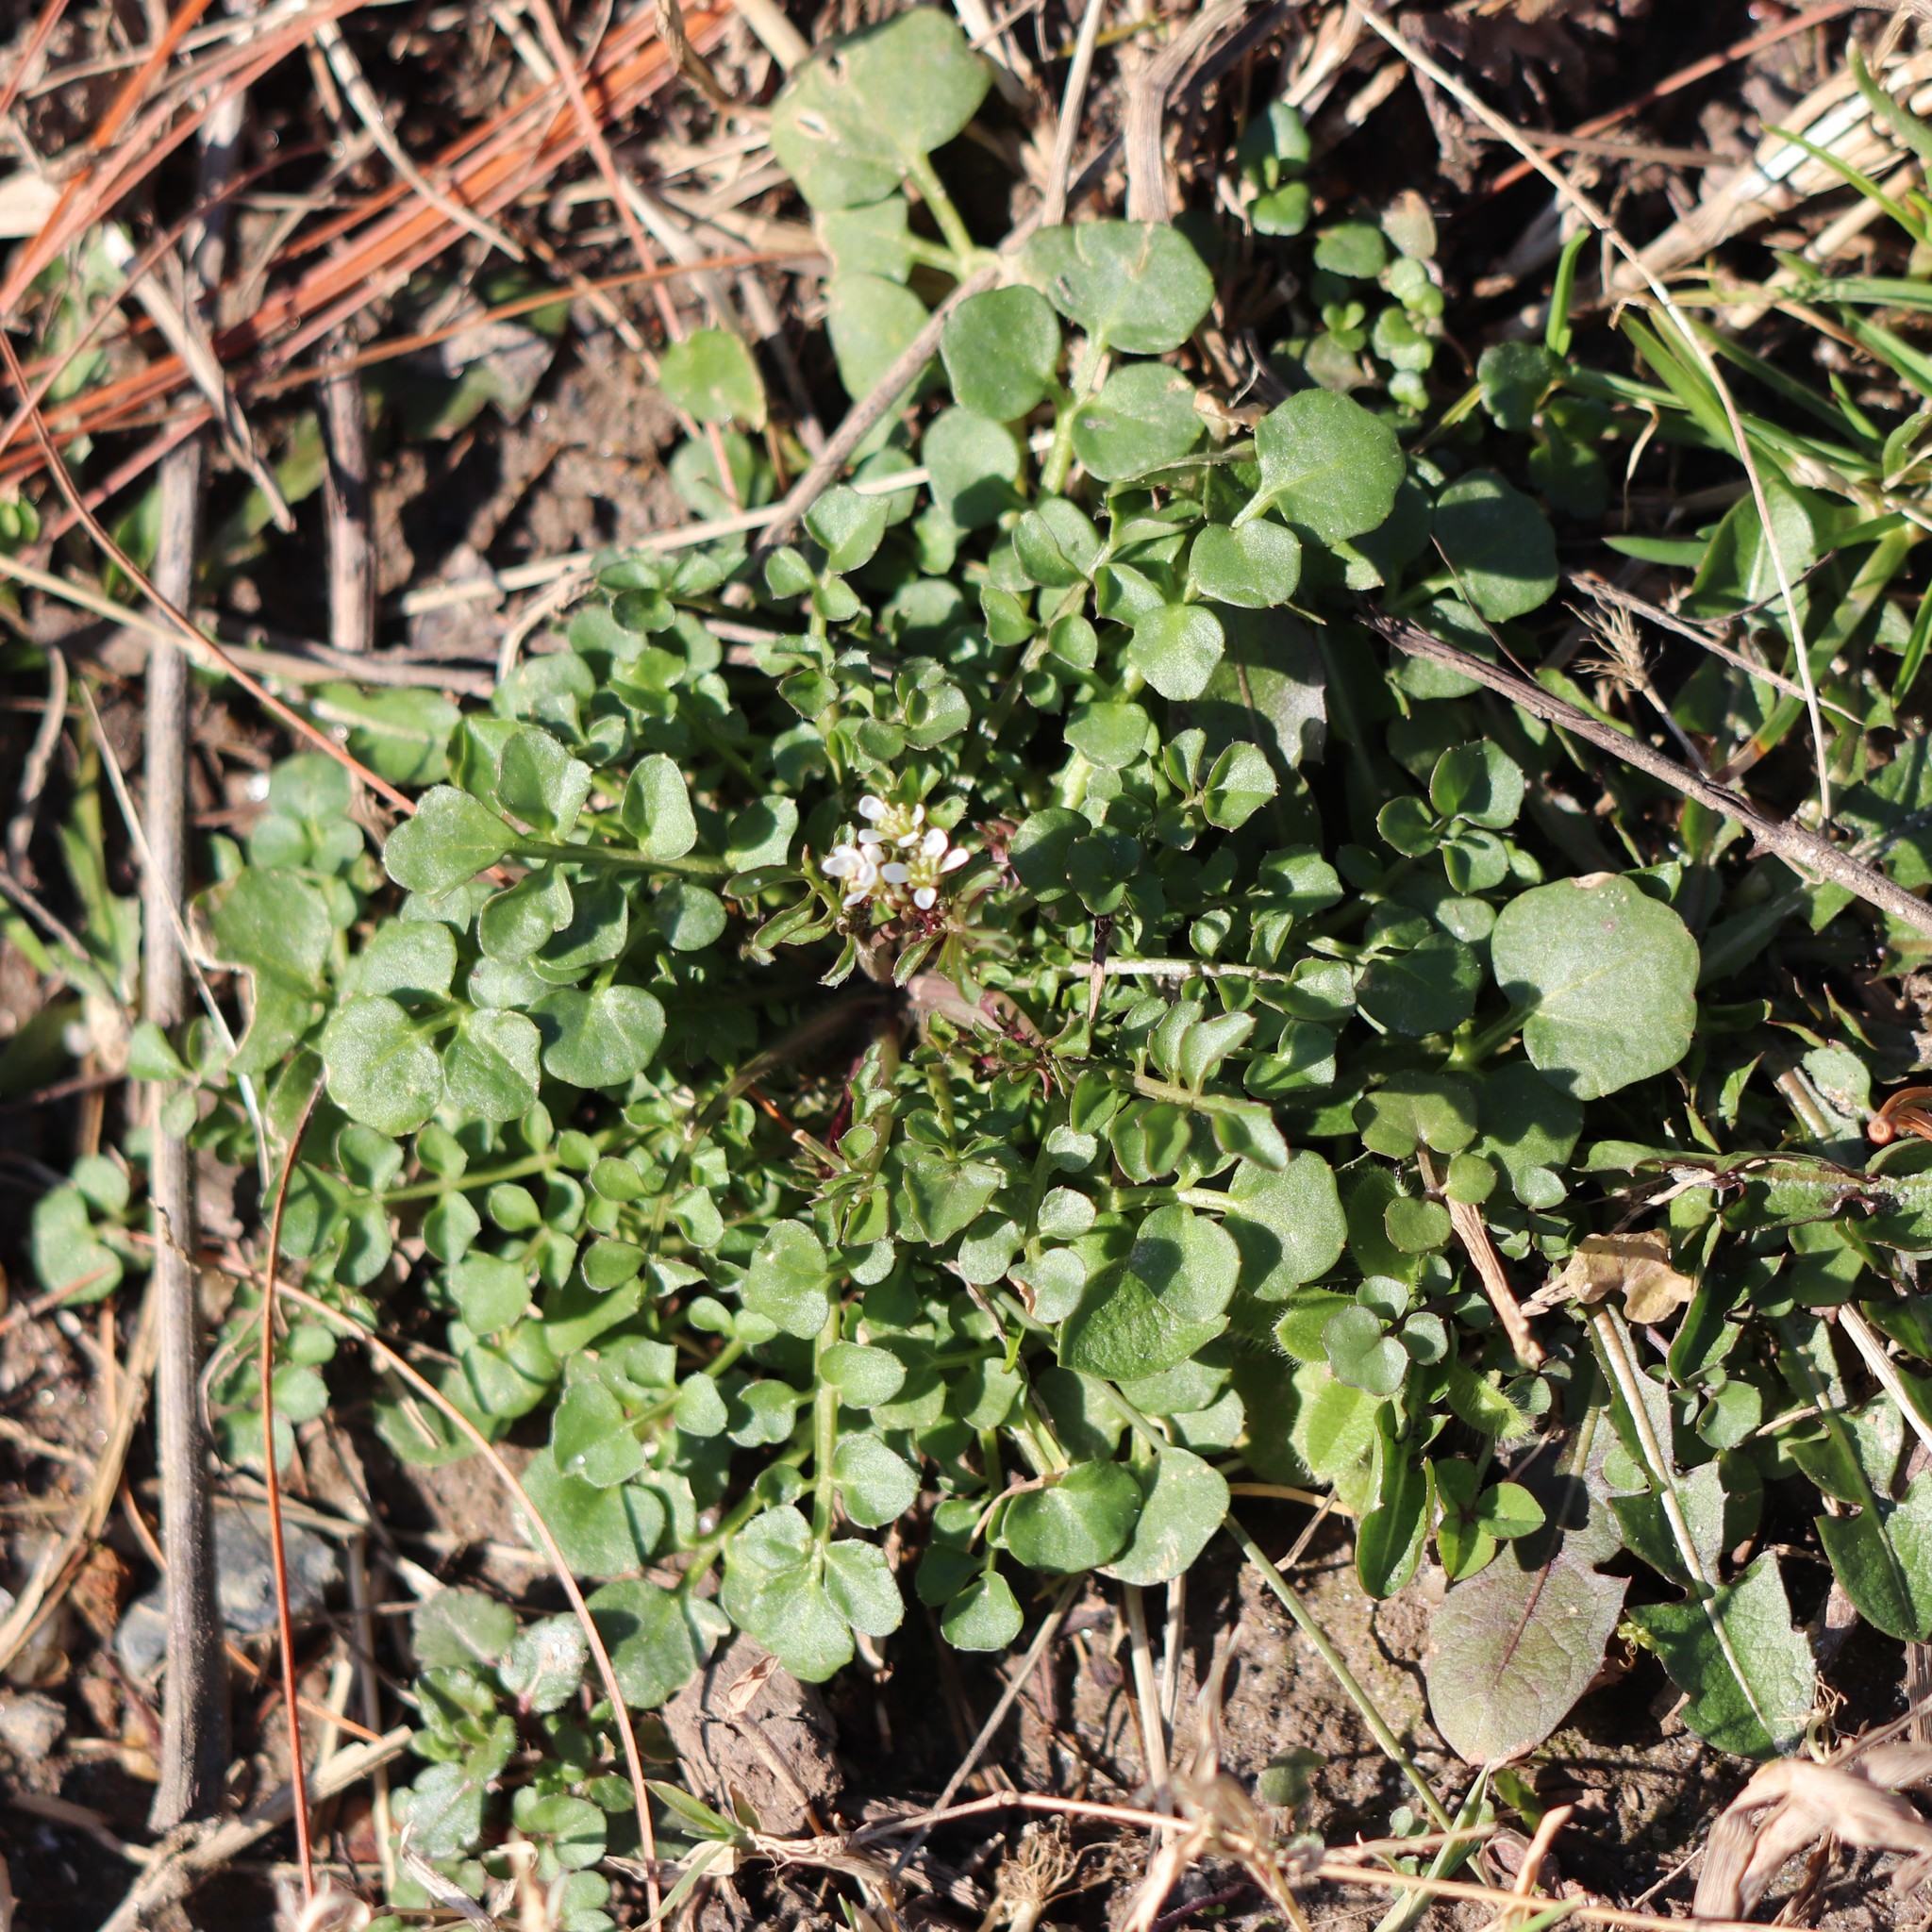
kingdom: Plantae
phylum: Tracheophyta
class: Magnoliopsida
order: Brassicales
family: Brassicaceae
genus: Cardamine
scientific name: Cardamine hirsuta
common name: Hairy bittercress
